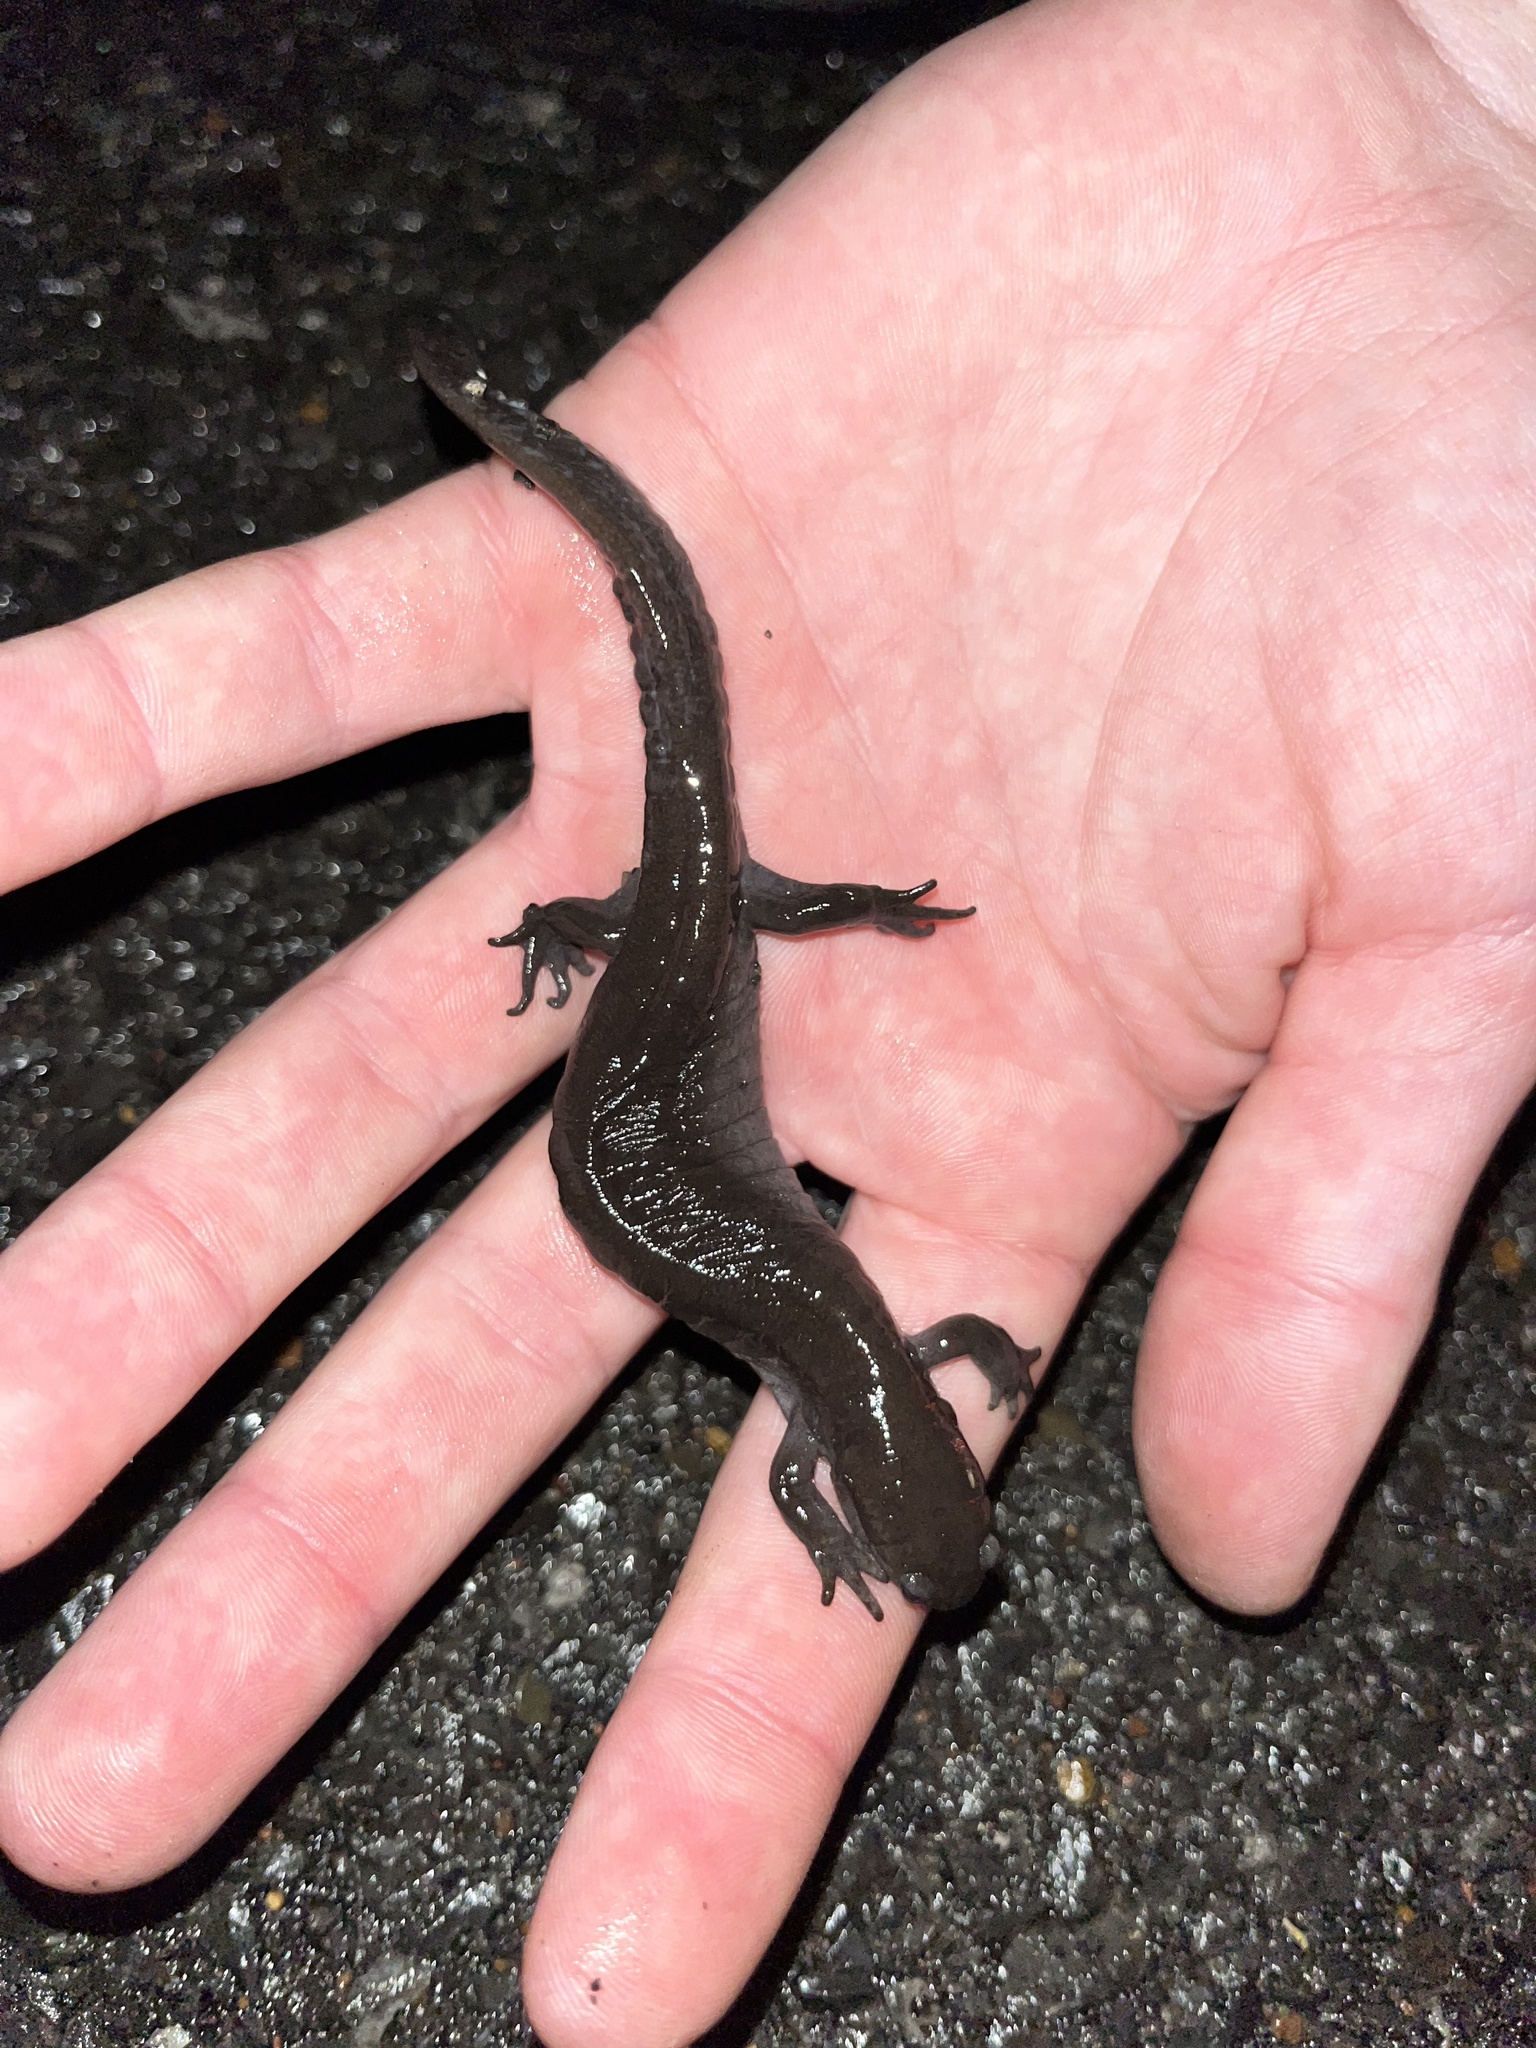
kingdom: Animalia
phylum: Chordata
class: Amphibia
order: Caudata
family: Ambystomatidae
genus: Ambystoma
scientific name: Ambystoma texanum
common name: Small-mouth salamander
